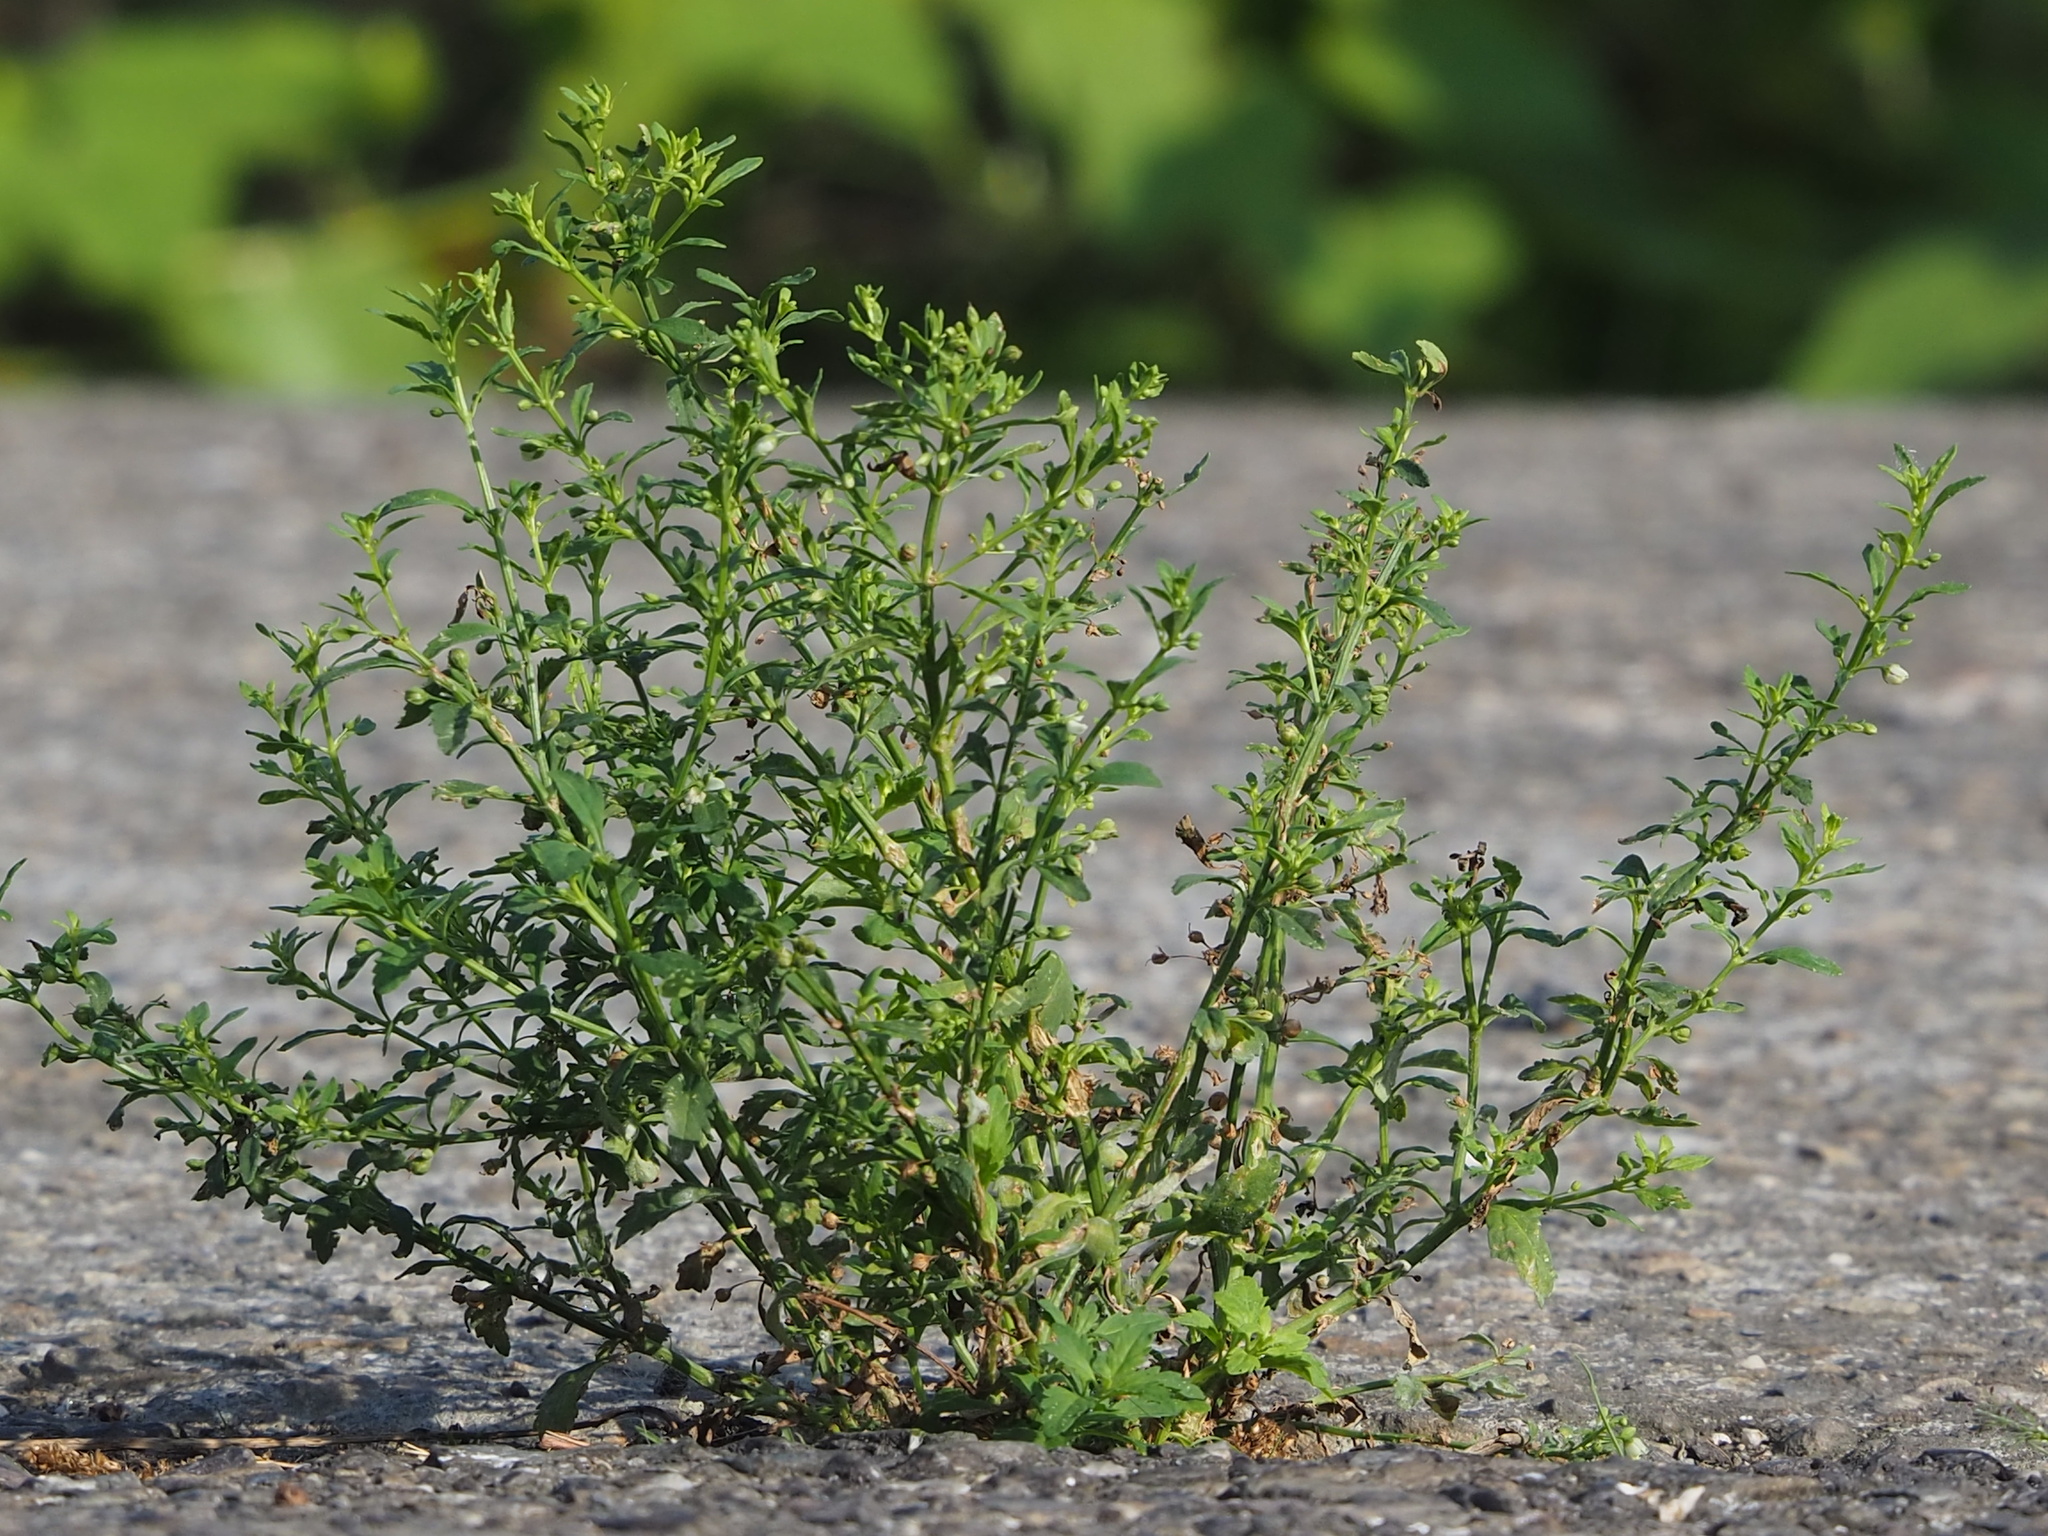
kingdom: Plantae
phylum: Tracheophyta
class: Magnoliopsida
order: Lamiales
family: Plantaginaceae
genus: Scoparia
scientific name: Scoparia dulcis
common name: Scoparia-weed
